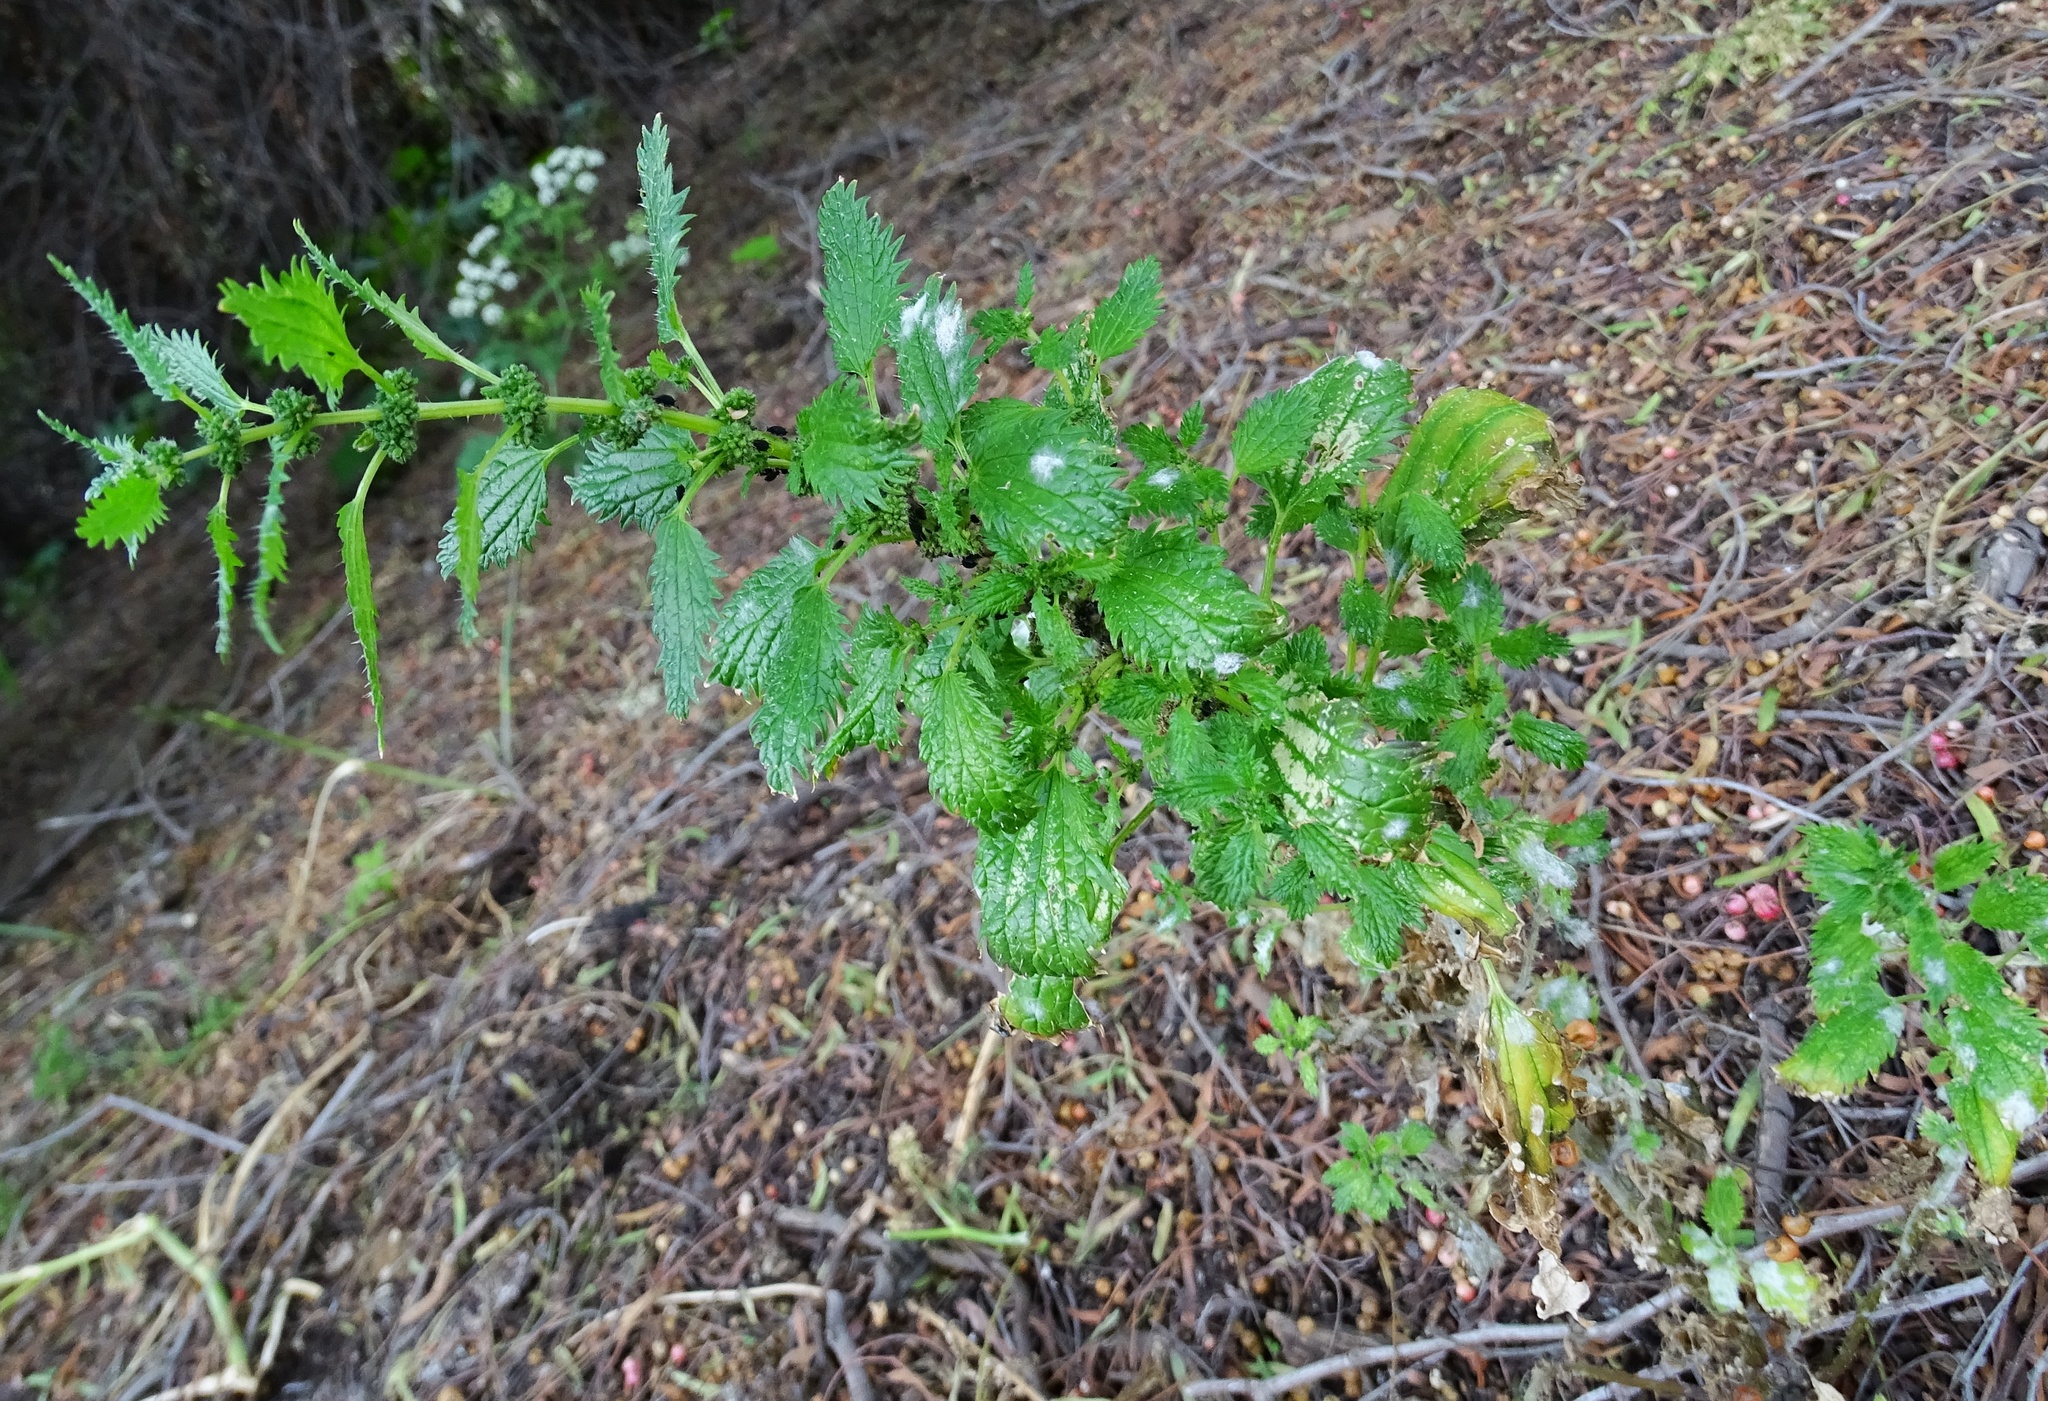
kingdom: Plantae
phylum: Tracheophyta
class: Magnoliopsida
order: Rosales
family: Urticaceae
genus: Urtica
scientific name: Urtica urens
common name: Dwarf nettle
